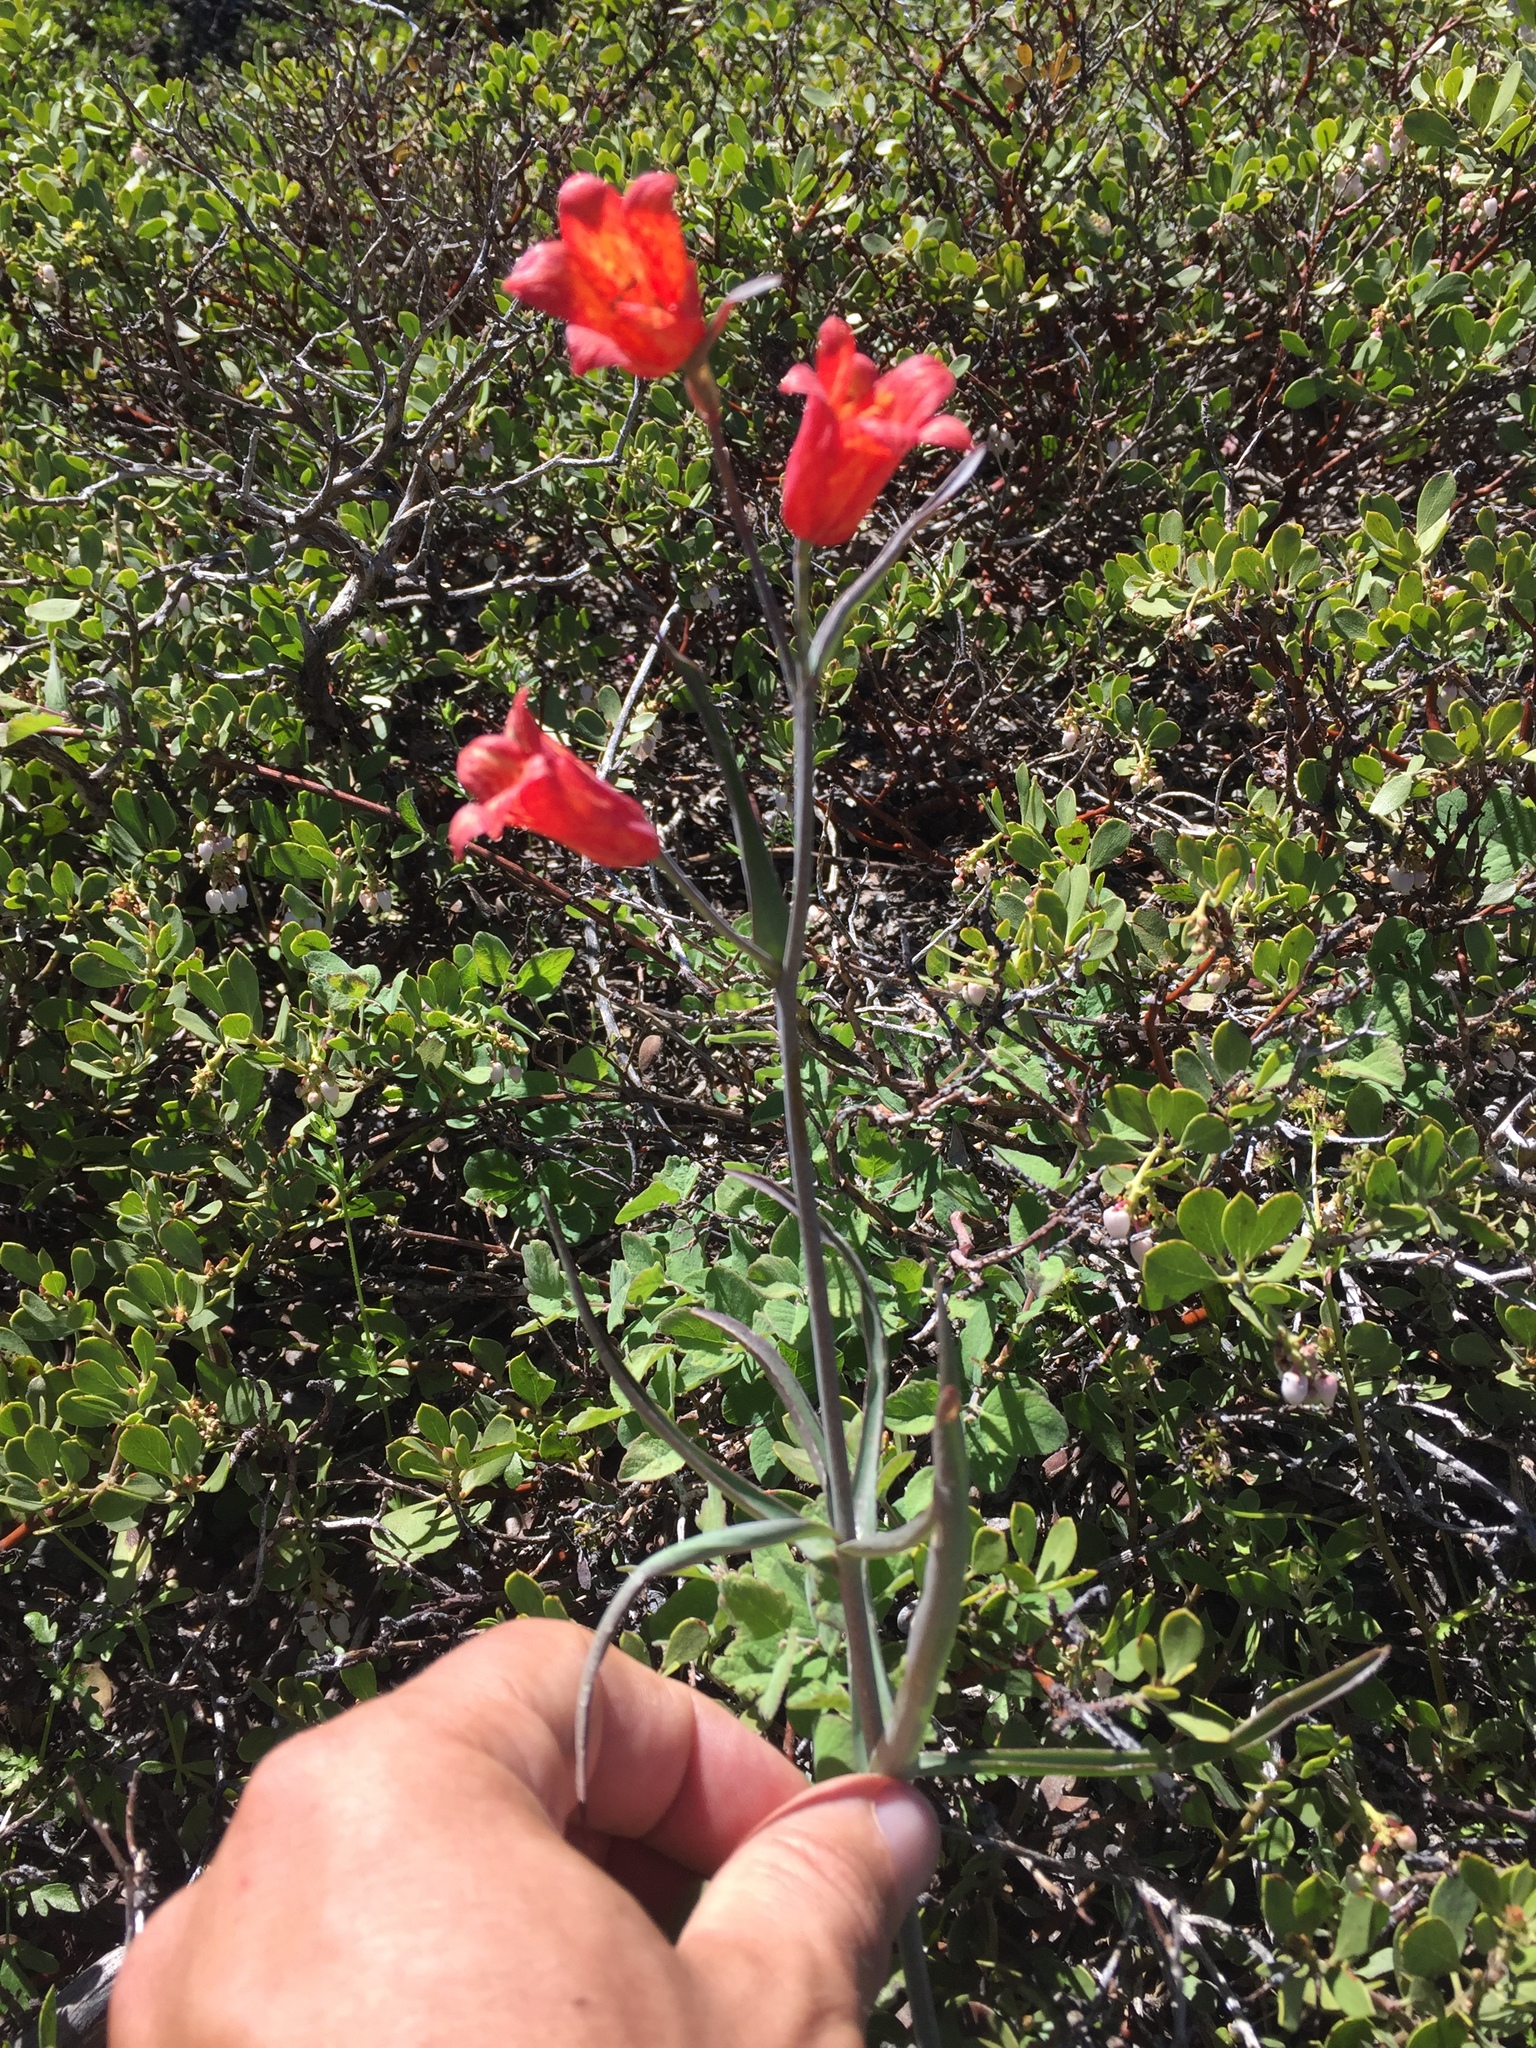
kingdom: Plantae
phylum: Tracheophyta
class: Liliopsida
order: Liliales
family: Liliaceae
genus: Fritillaria
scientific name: Fritillaria recurva
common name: Scarlet fritillary
